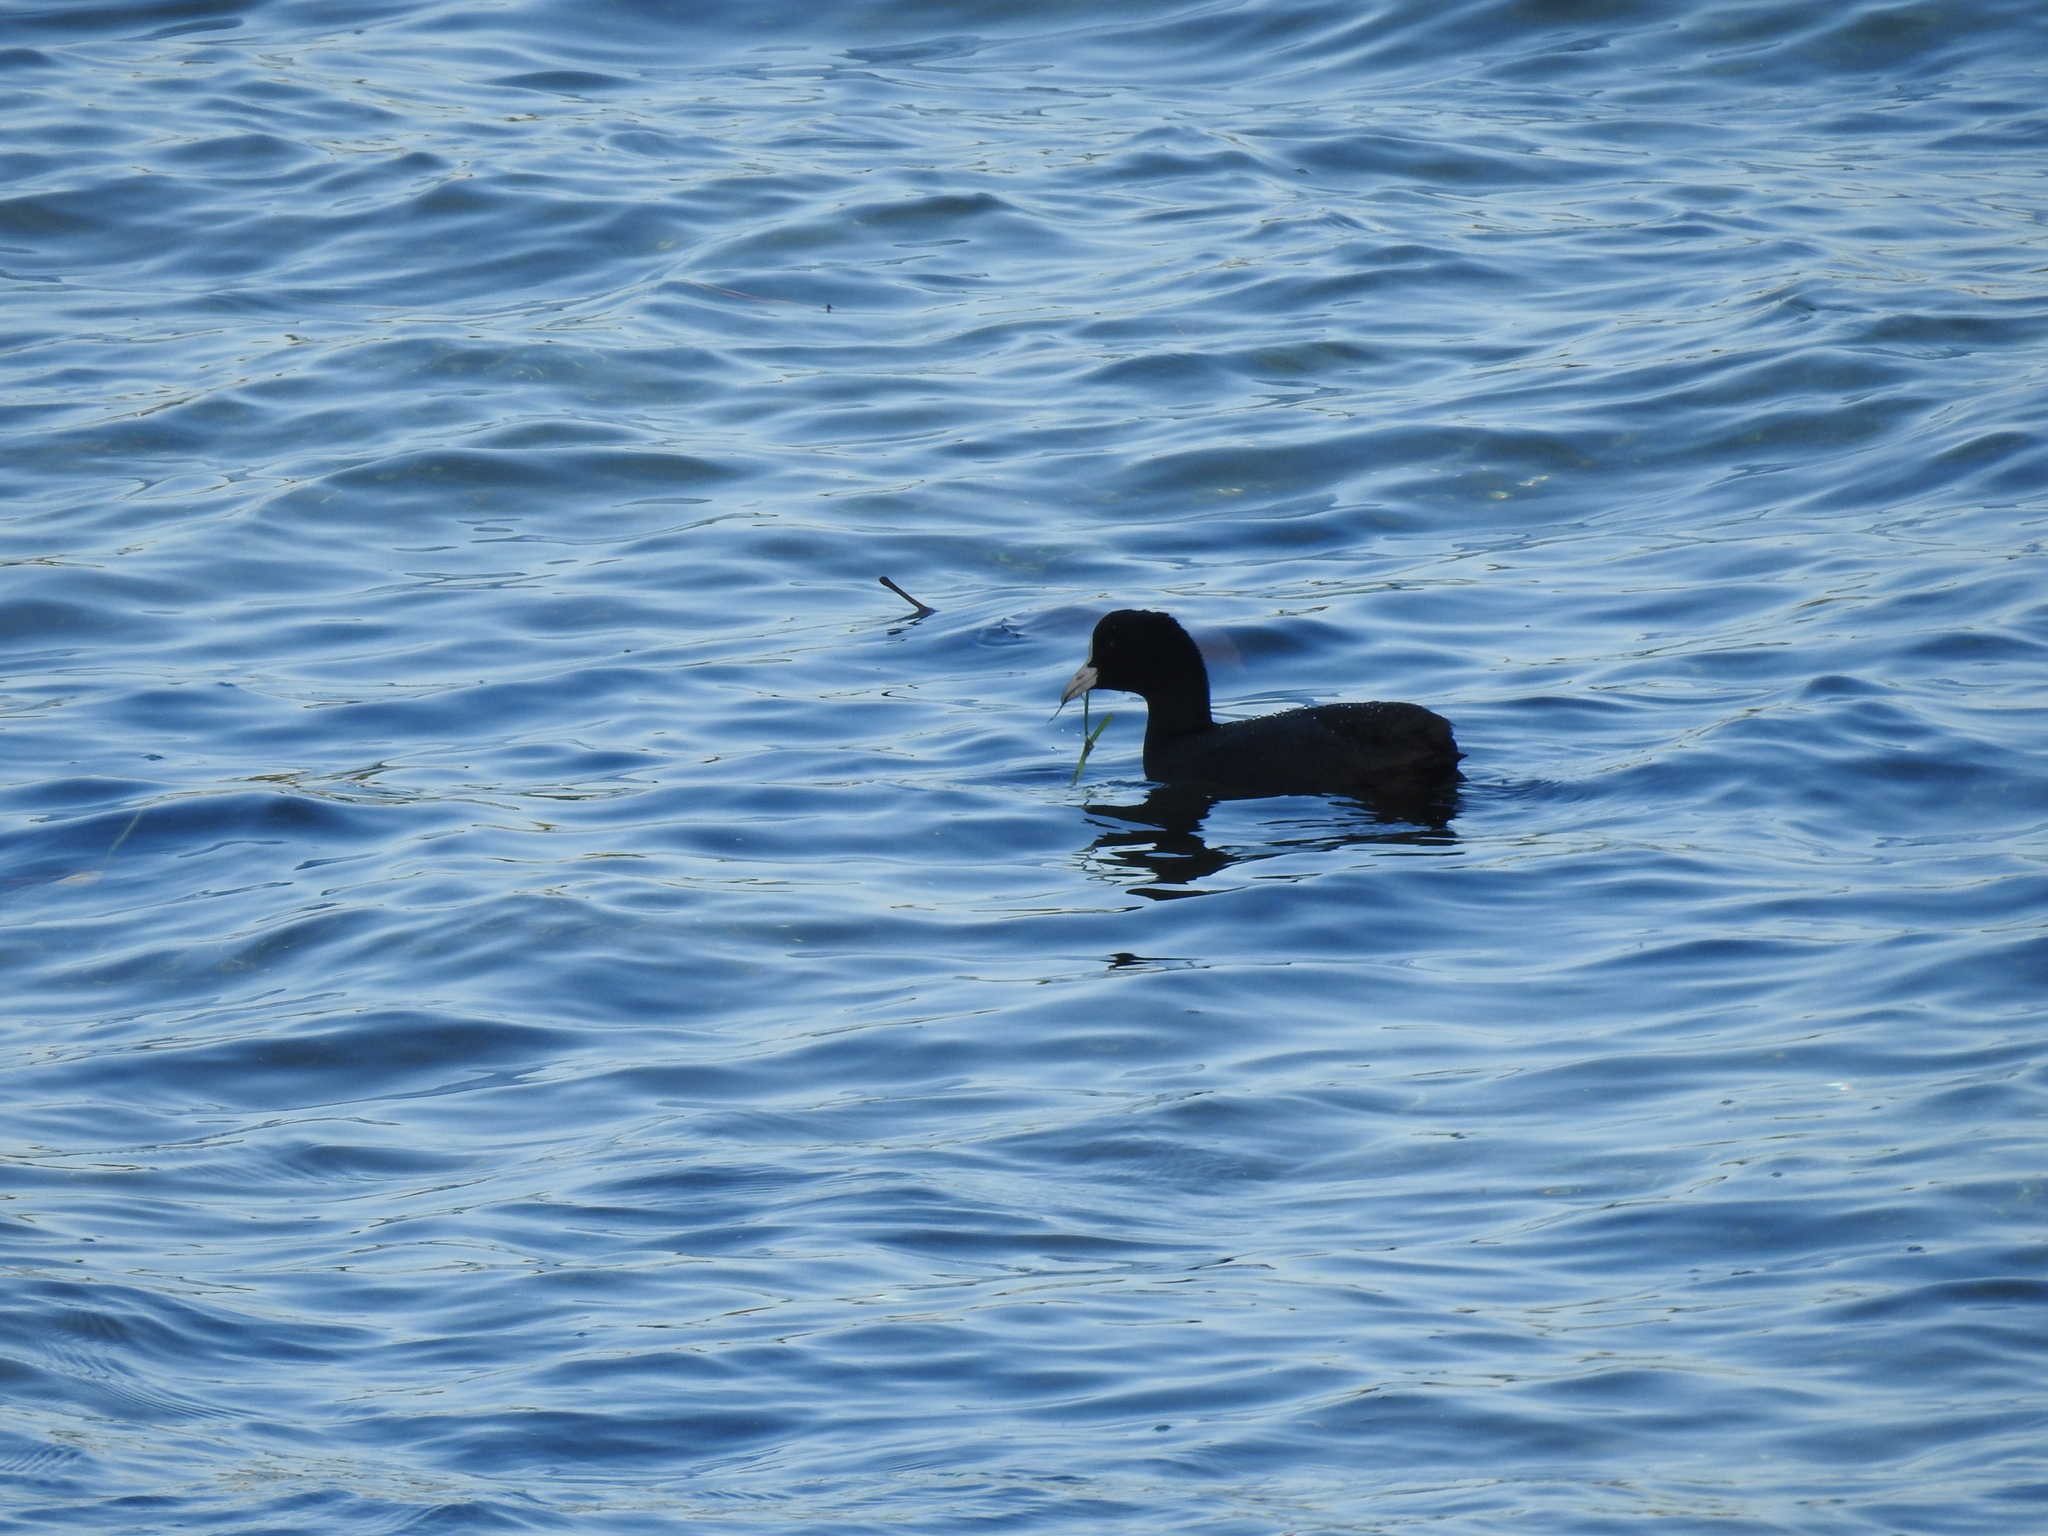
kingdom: Animalia
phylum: Chordata
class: Aves
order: Gruiformes
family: Rallidae
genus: Fulica
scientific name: Fulica atra
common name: Eurasian coot
